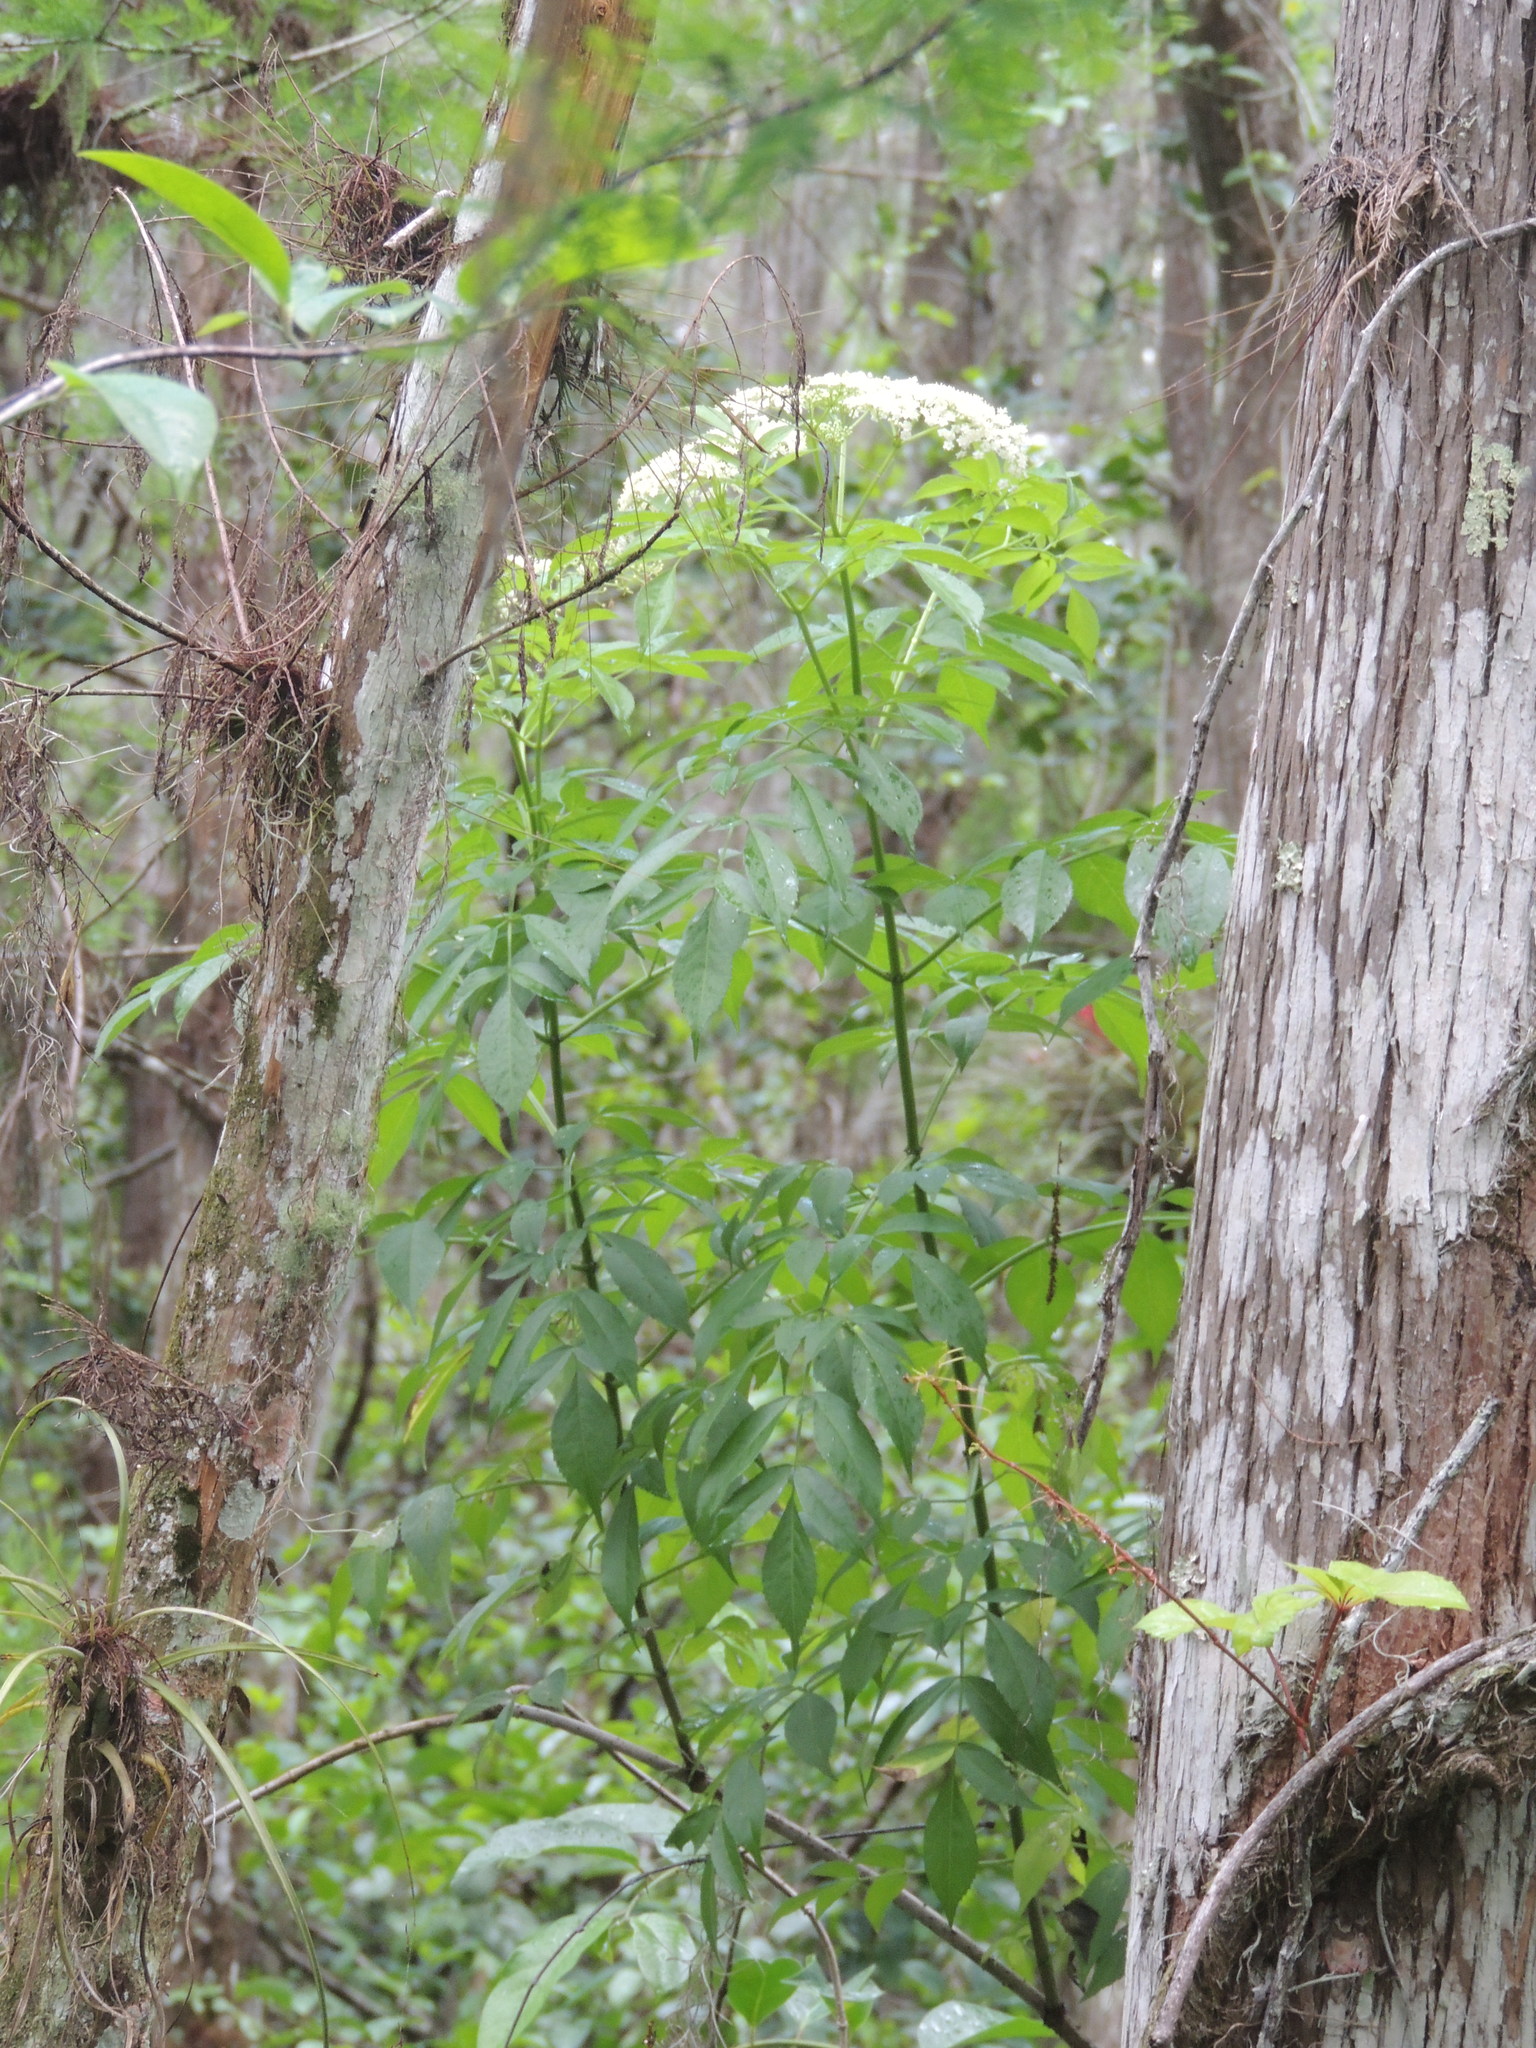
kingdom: Plantae
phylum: Tracheophyta
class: Magnoliopsida
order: Dipsacales
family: Viburnaceae
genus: Sambucus
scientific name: Sambucus canadensis
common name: American elder
